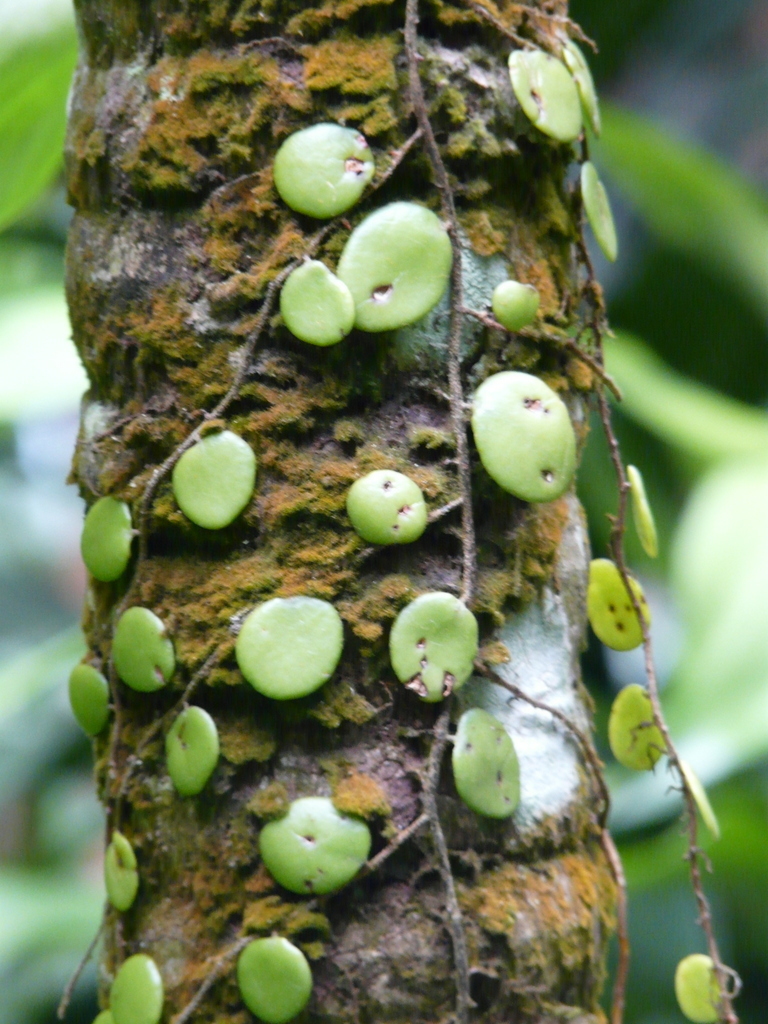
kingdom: Plantae
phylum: Tracheophyta
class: Polypodiopsida
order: Polypodiales
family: Polypodiaceae
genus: Pyrrosia
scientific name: Pyrrosia piloselloides
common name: Epiphytic creeping fern
